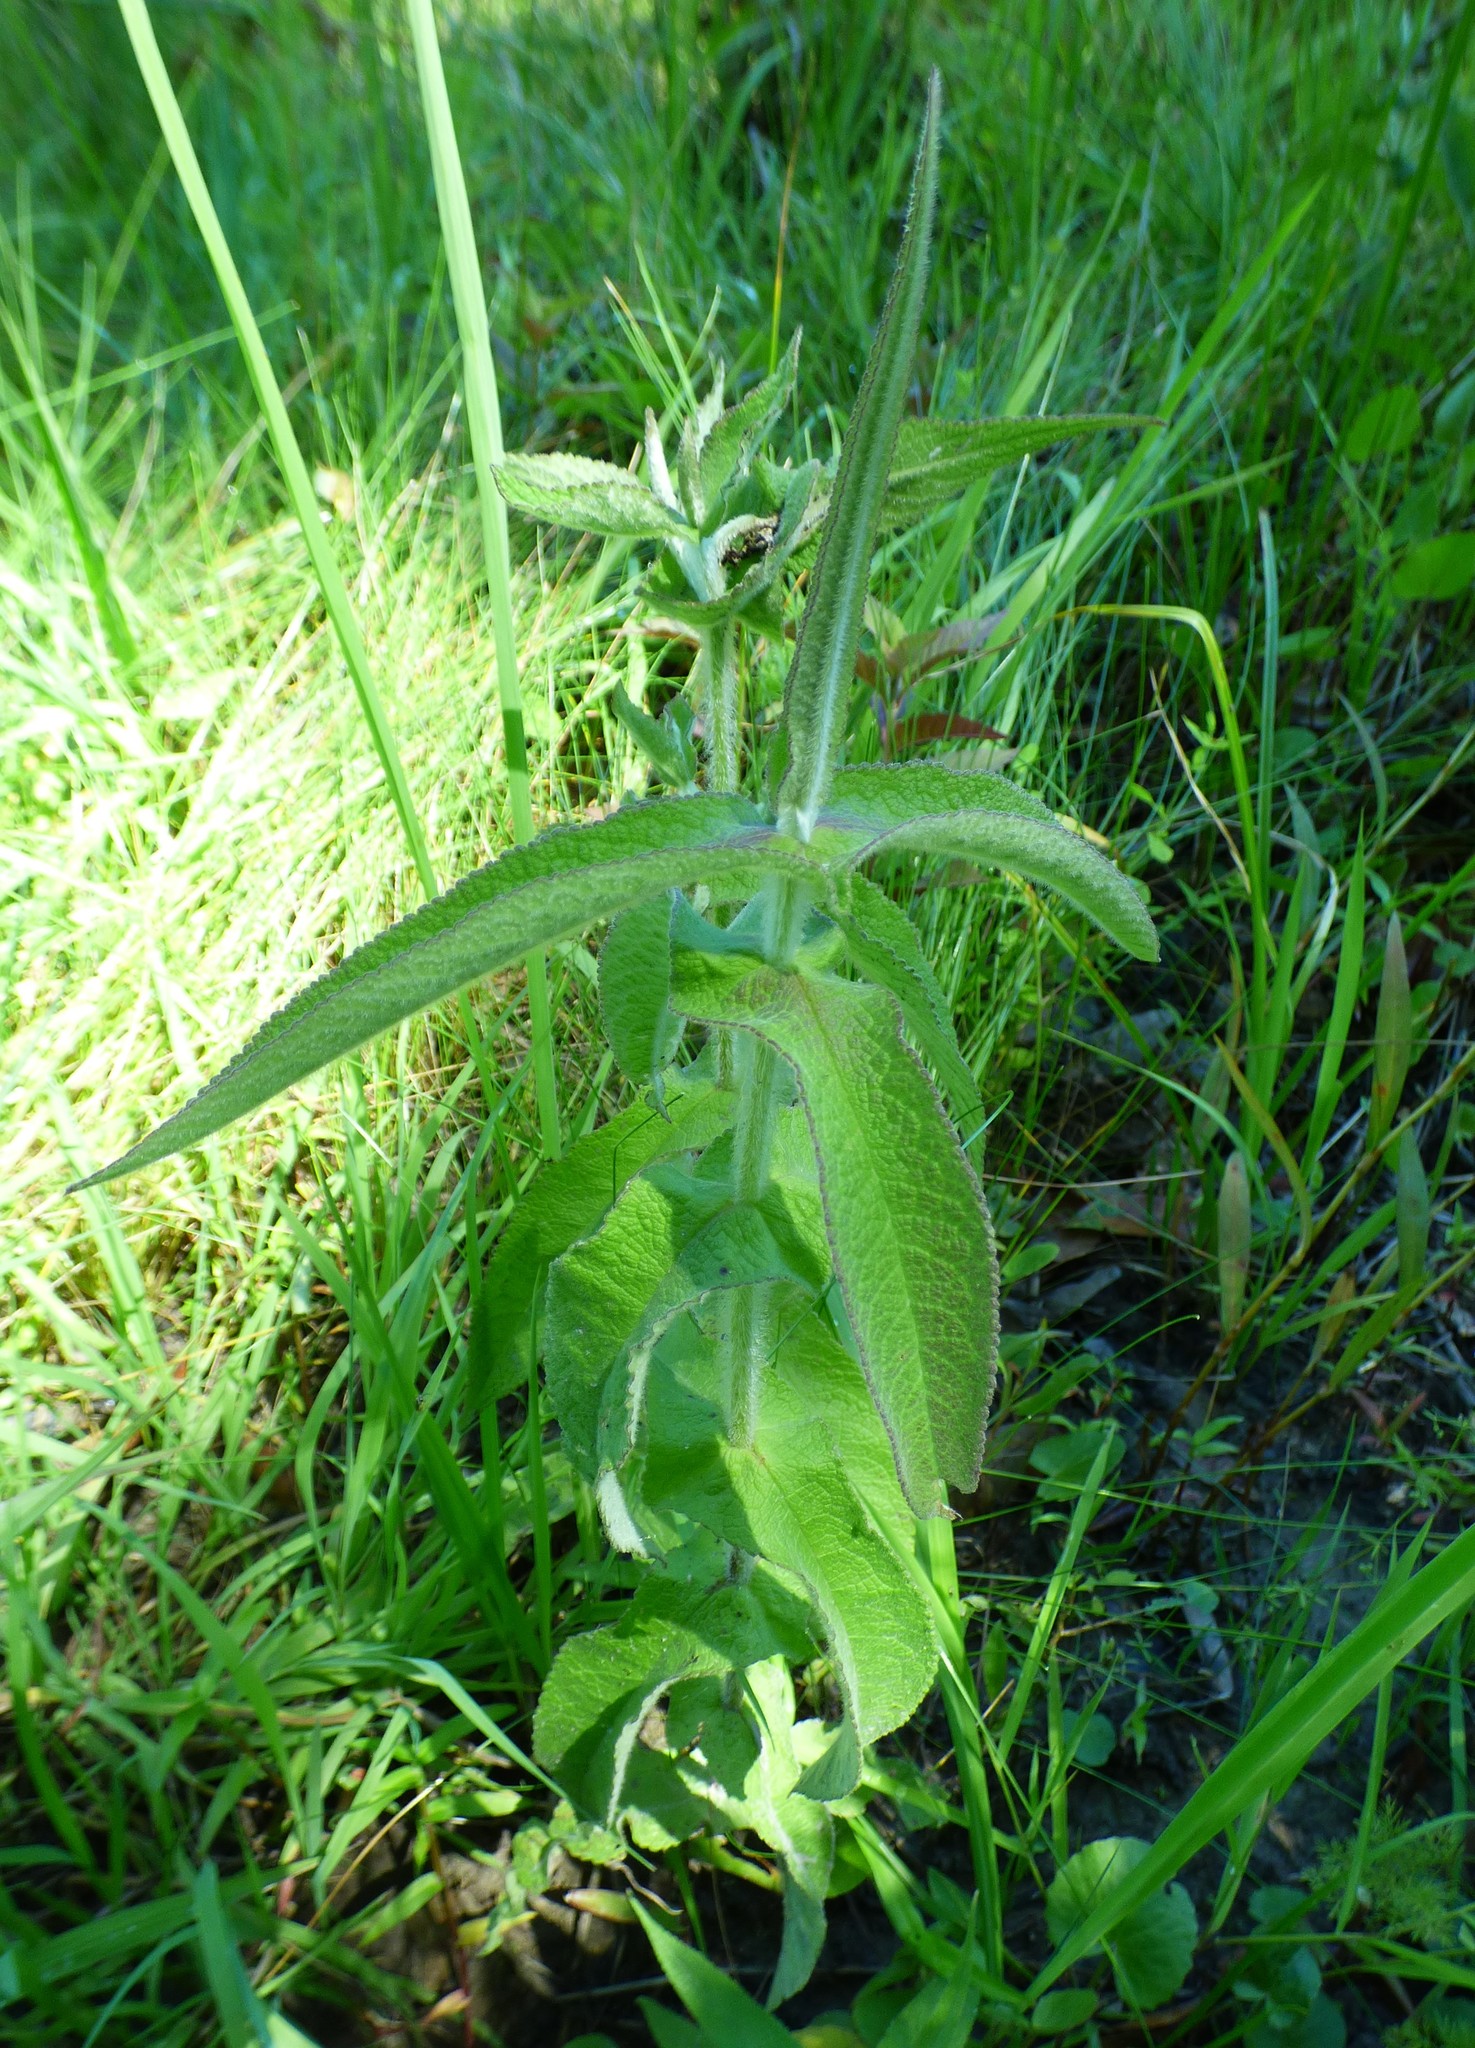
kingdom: Plantae
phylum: Tracheophyta
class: Magnoliopsida
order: Asterales
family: Asteraceae
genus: Eupatorium
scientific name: Eupatorium perfoliatum
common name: Boneset
